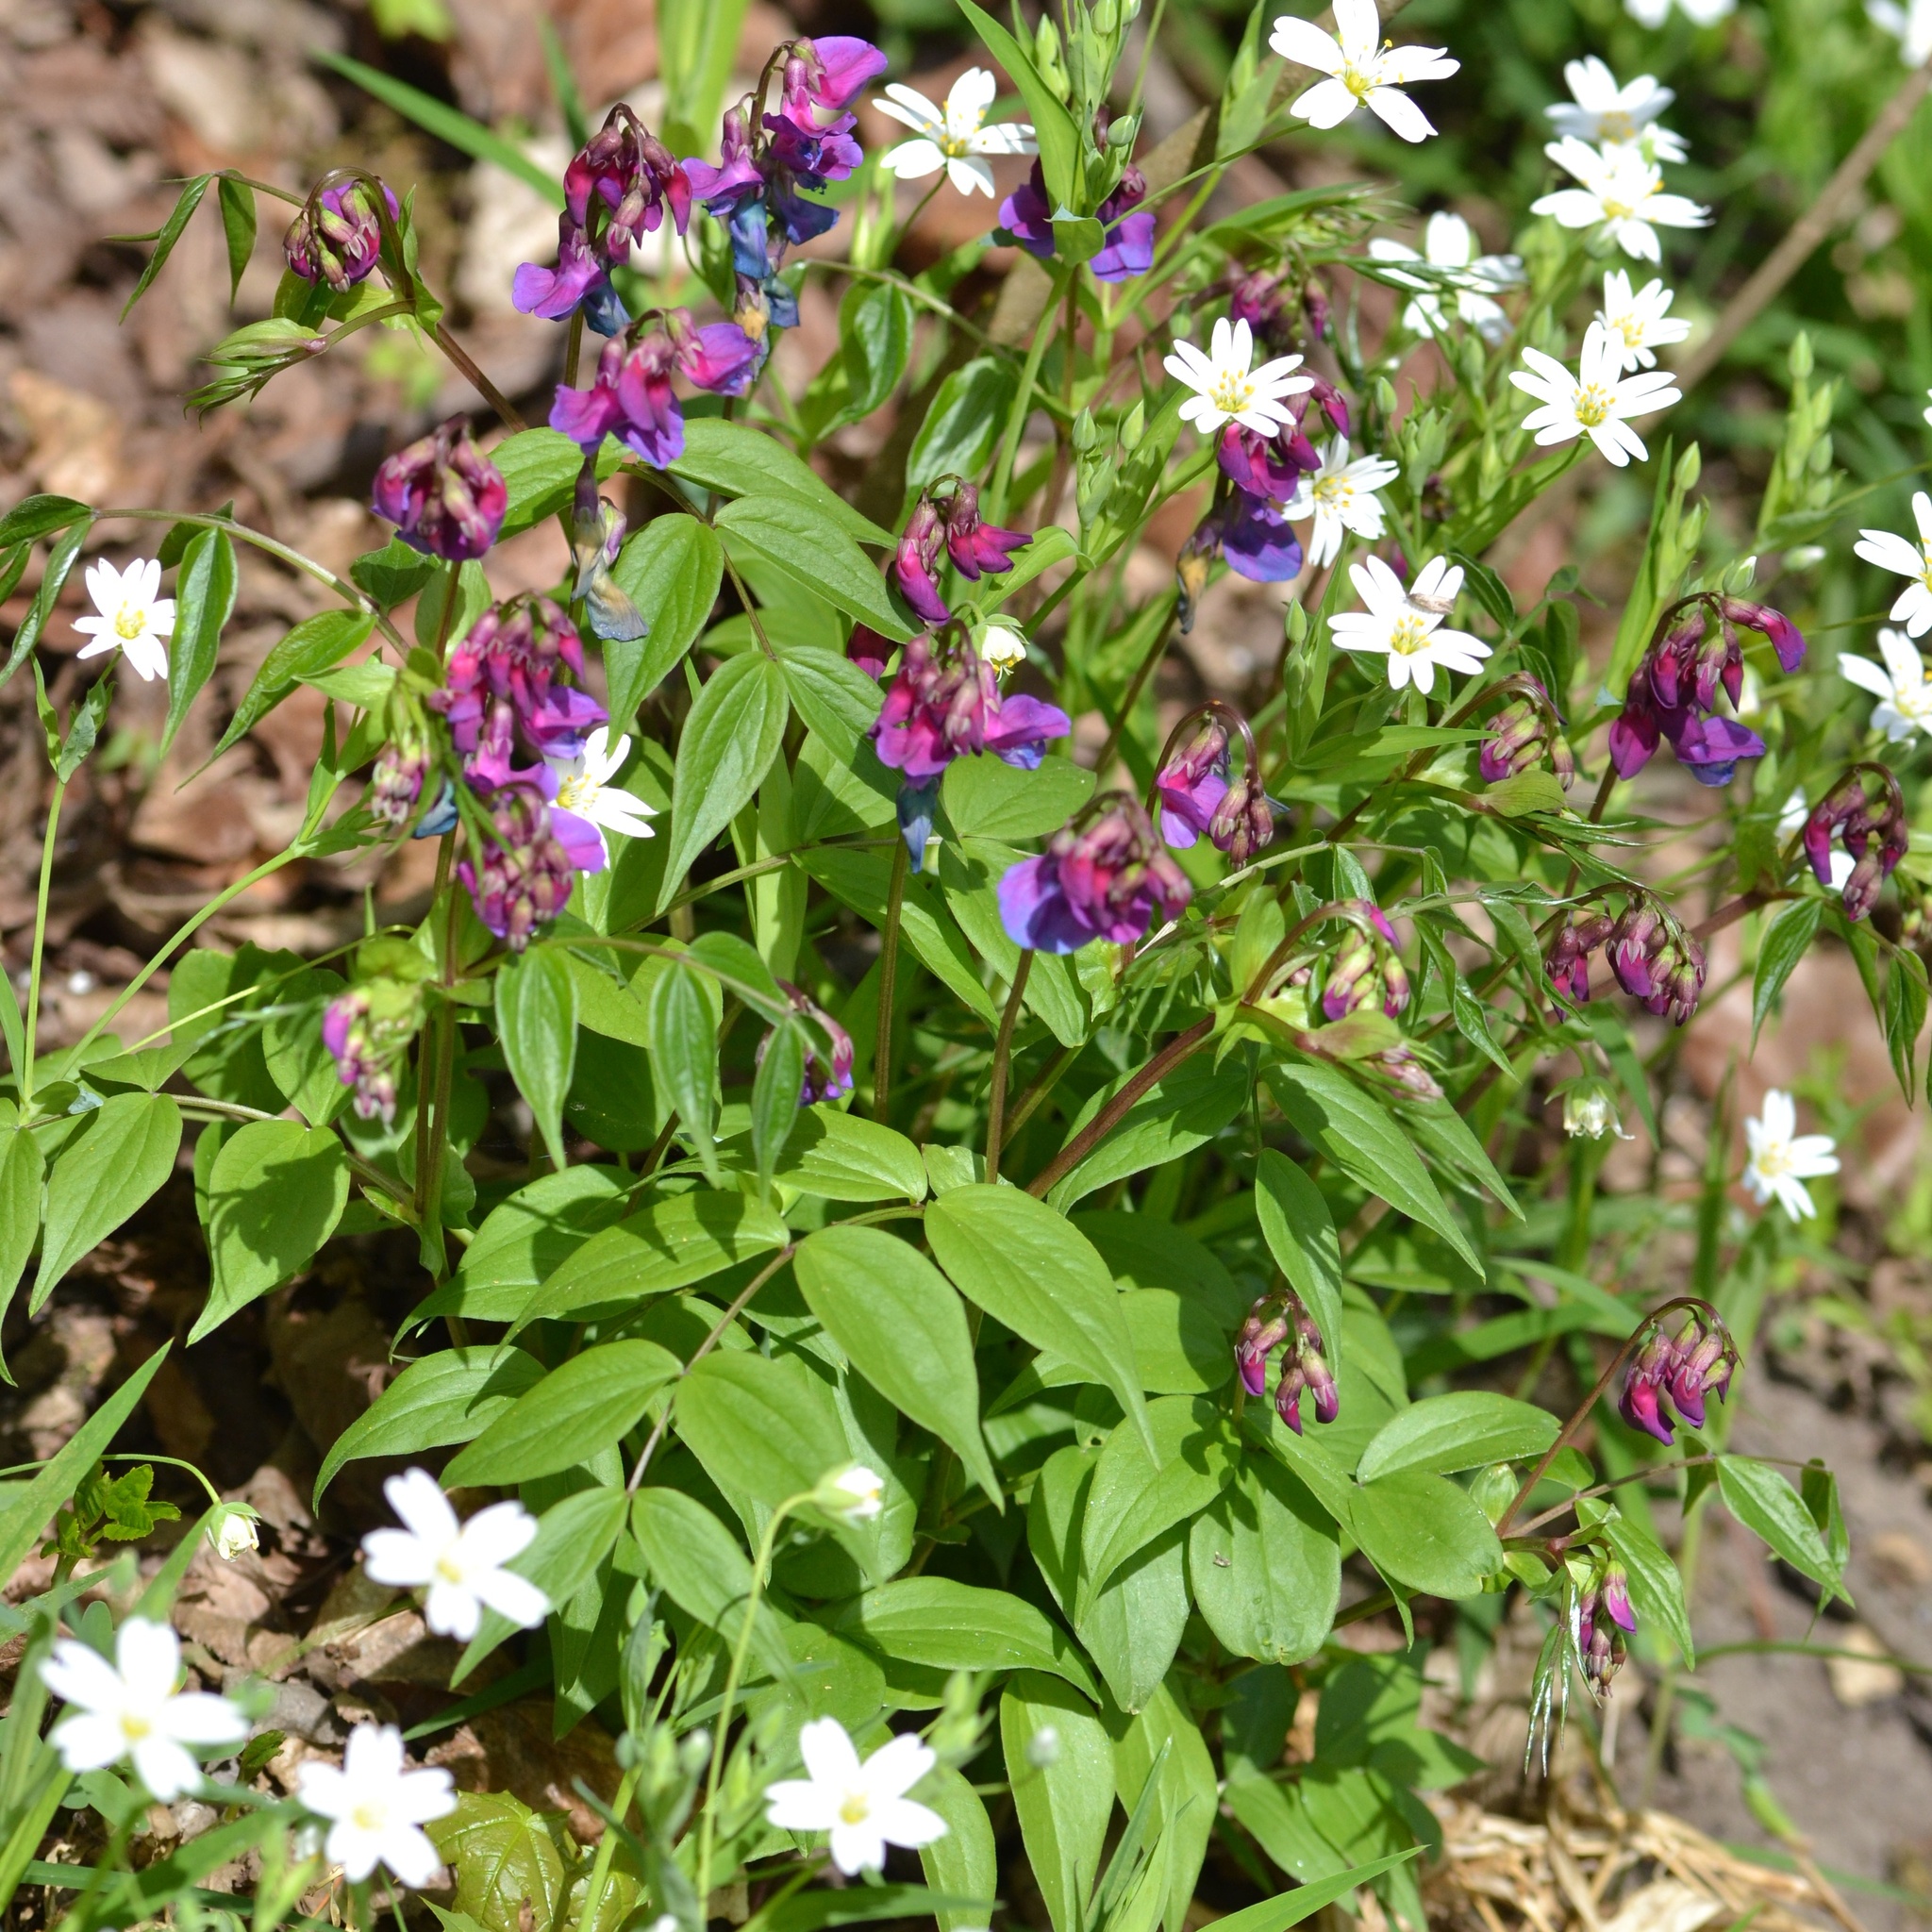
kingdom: Plantae
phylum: Tracheophyta
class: Magnoliopsida
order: Fabales
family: Fabaceae
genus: Lathyrus
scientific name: Lathyrus vernus
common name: Spring pea
